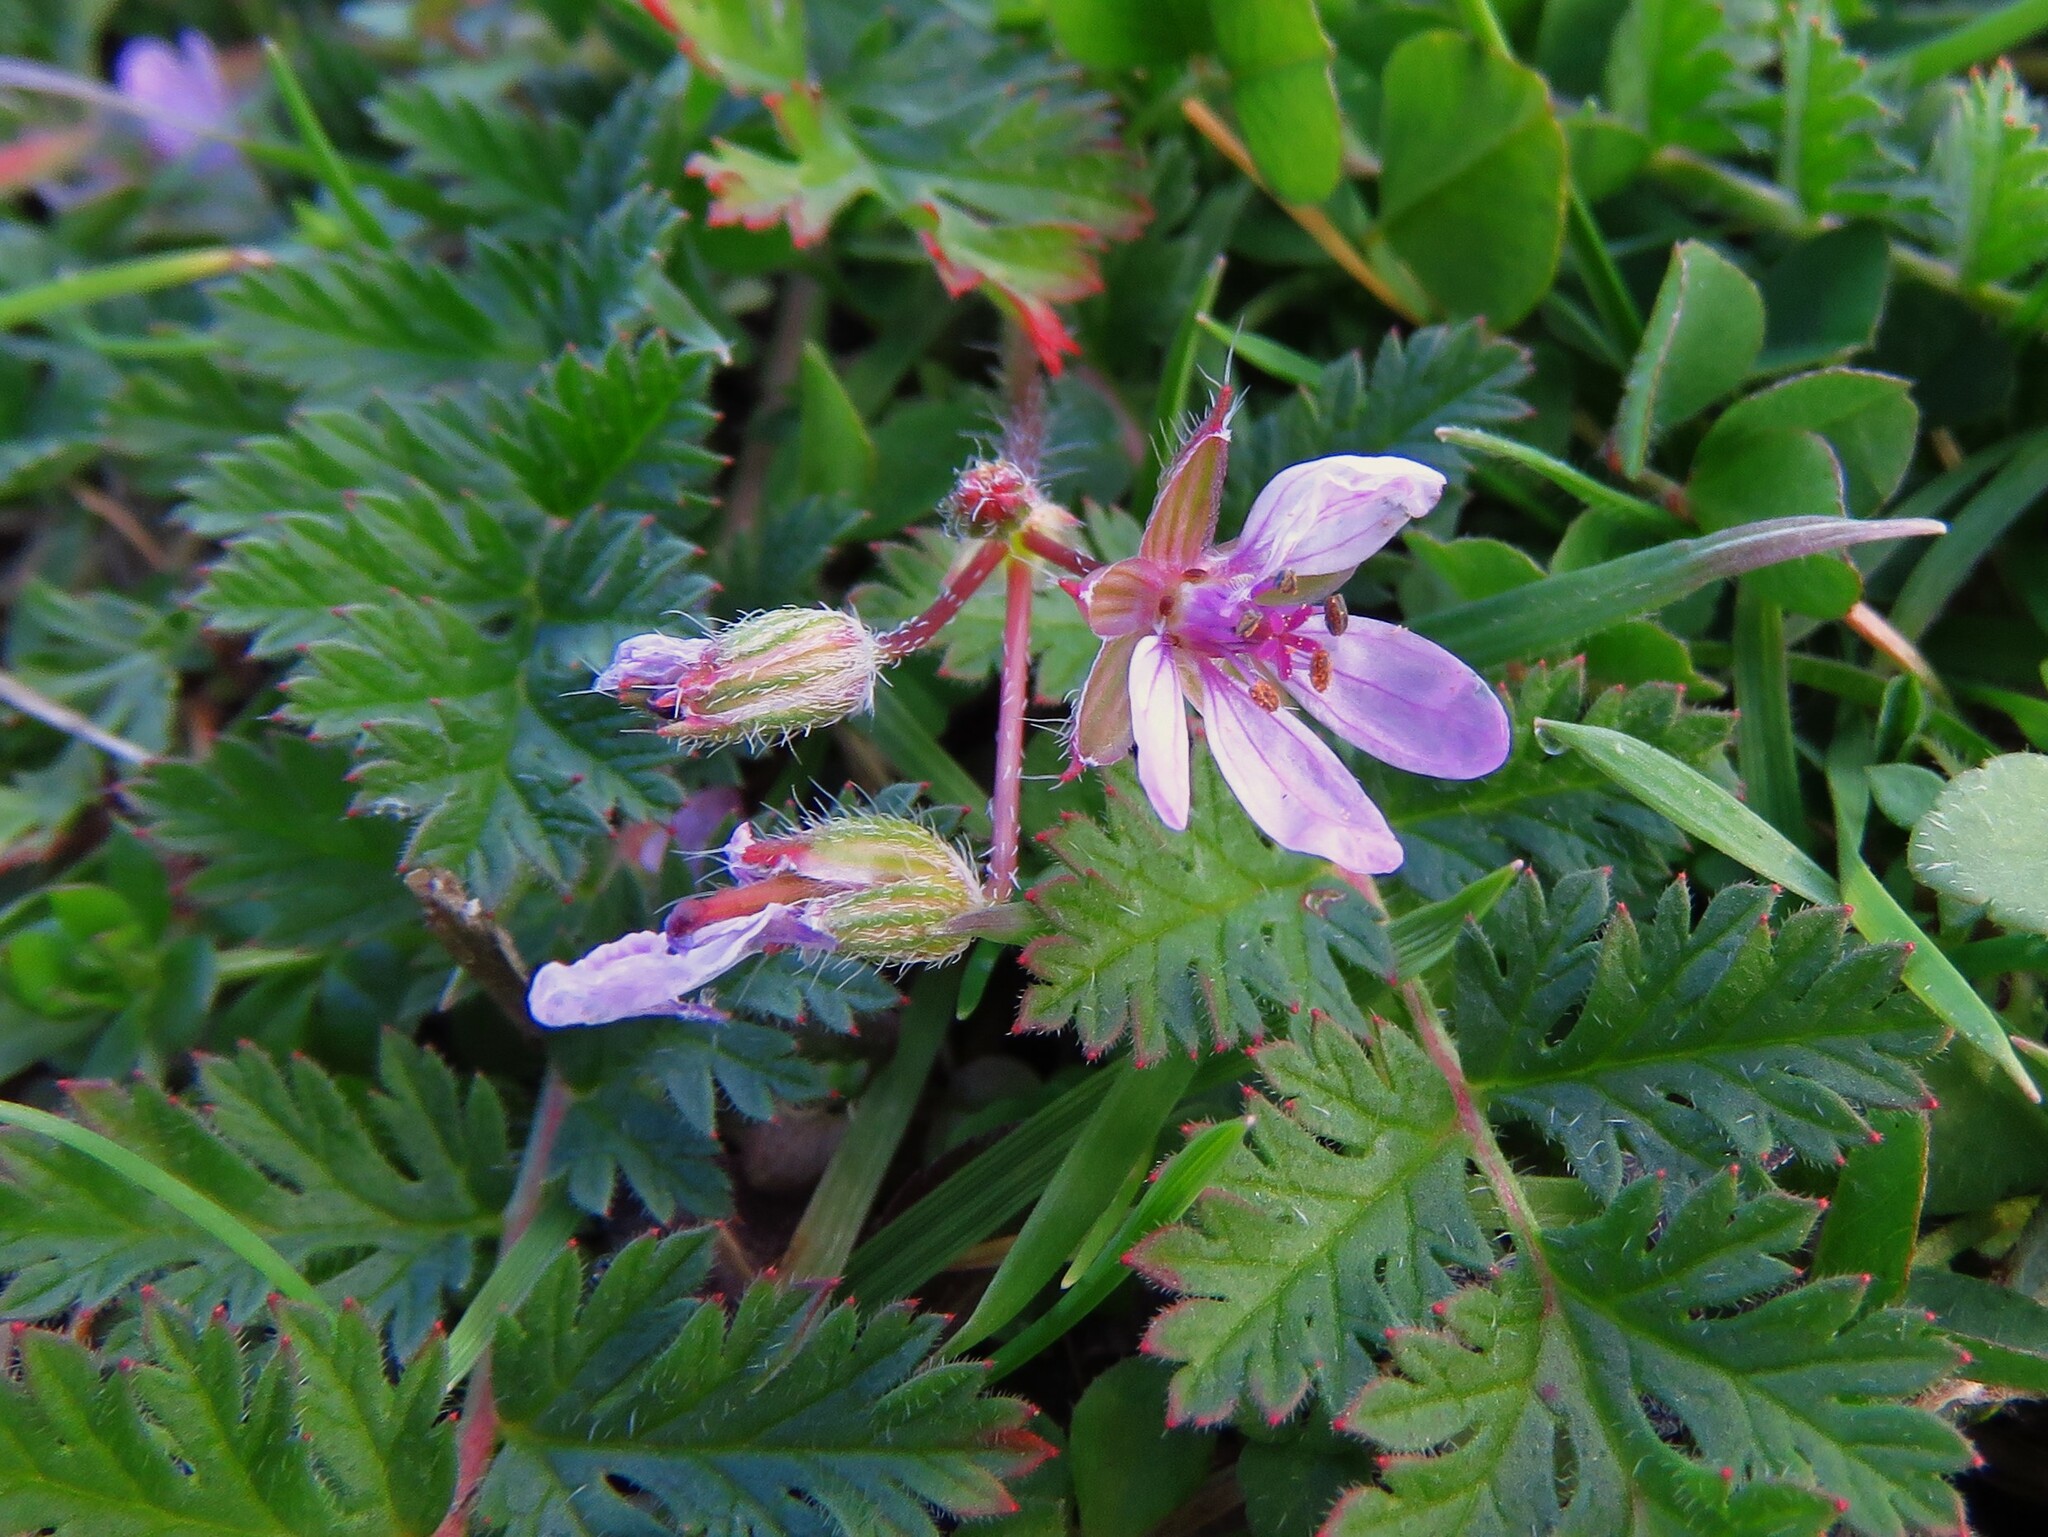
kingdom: Plantae
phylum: Tracheophyta
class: Magnoliopsida
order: Geraniales
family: Geraniaceae
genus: Erodium
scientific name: Erodium cicutarium
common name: Common stork's-bill
